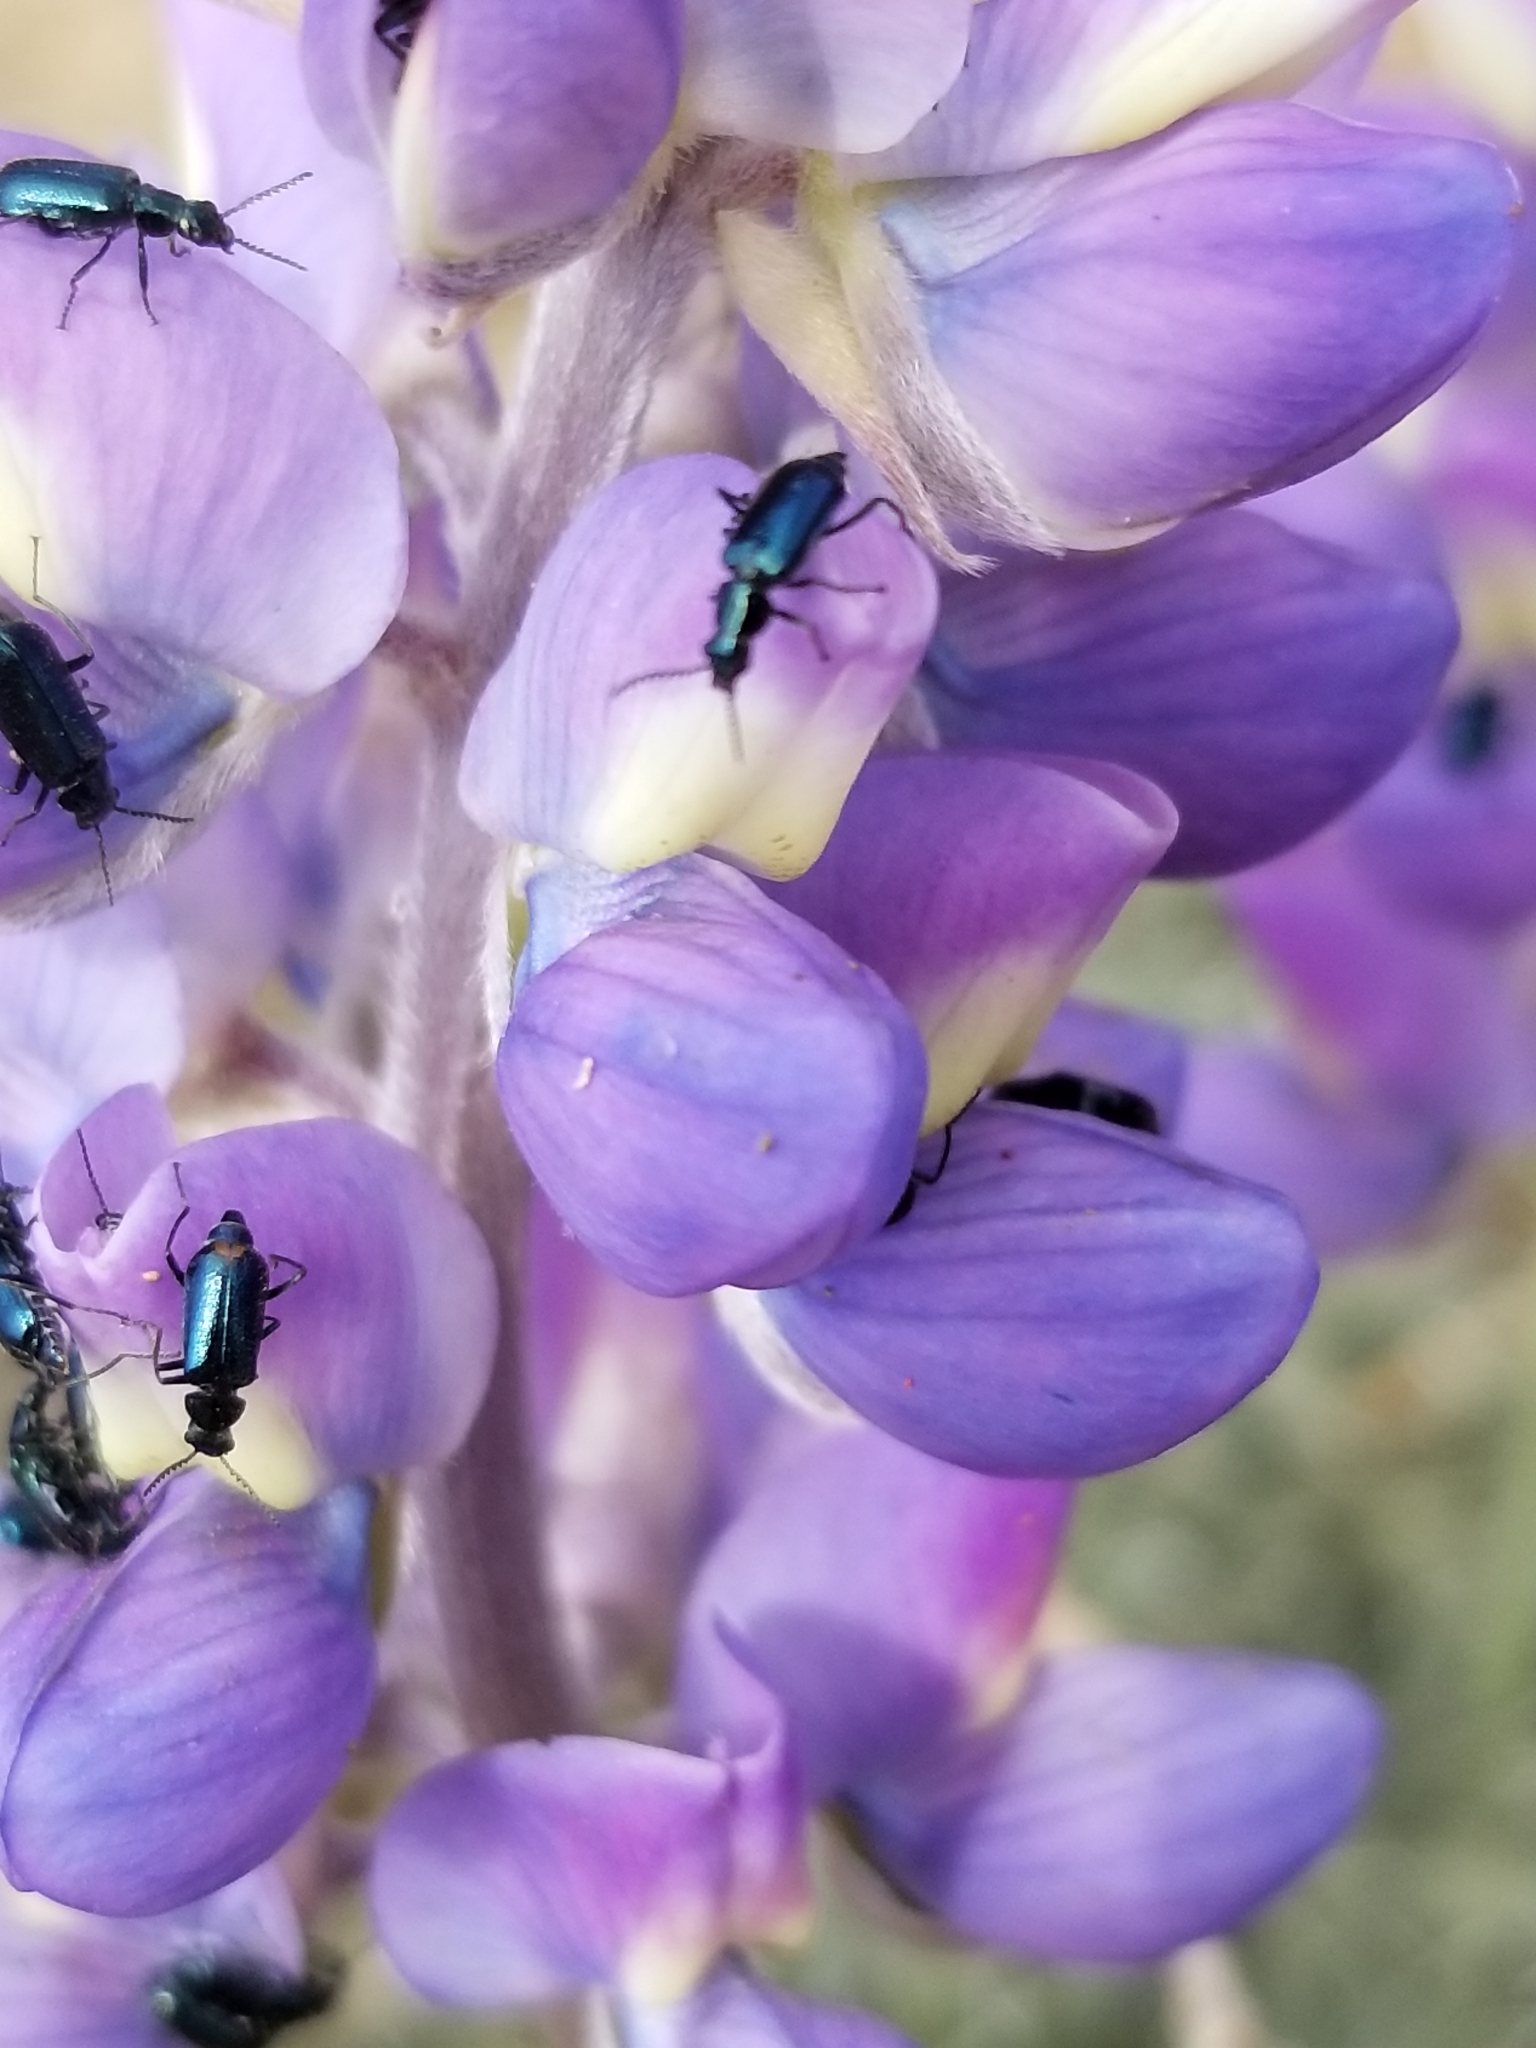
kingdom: Plantae
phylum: Tracheophyta
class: Magnoliopsida
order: Fabales
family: Fabaceae
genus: Lupinus
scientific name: Lupinus excubitus
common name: Grape soda lupine
